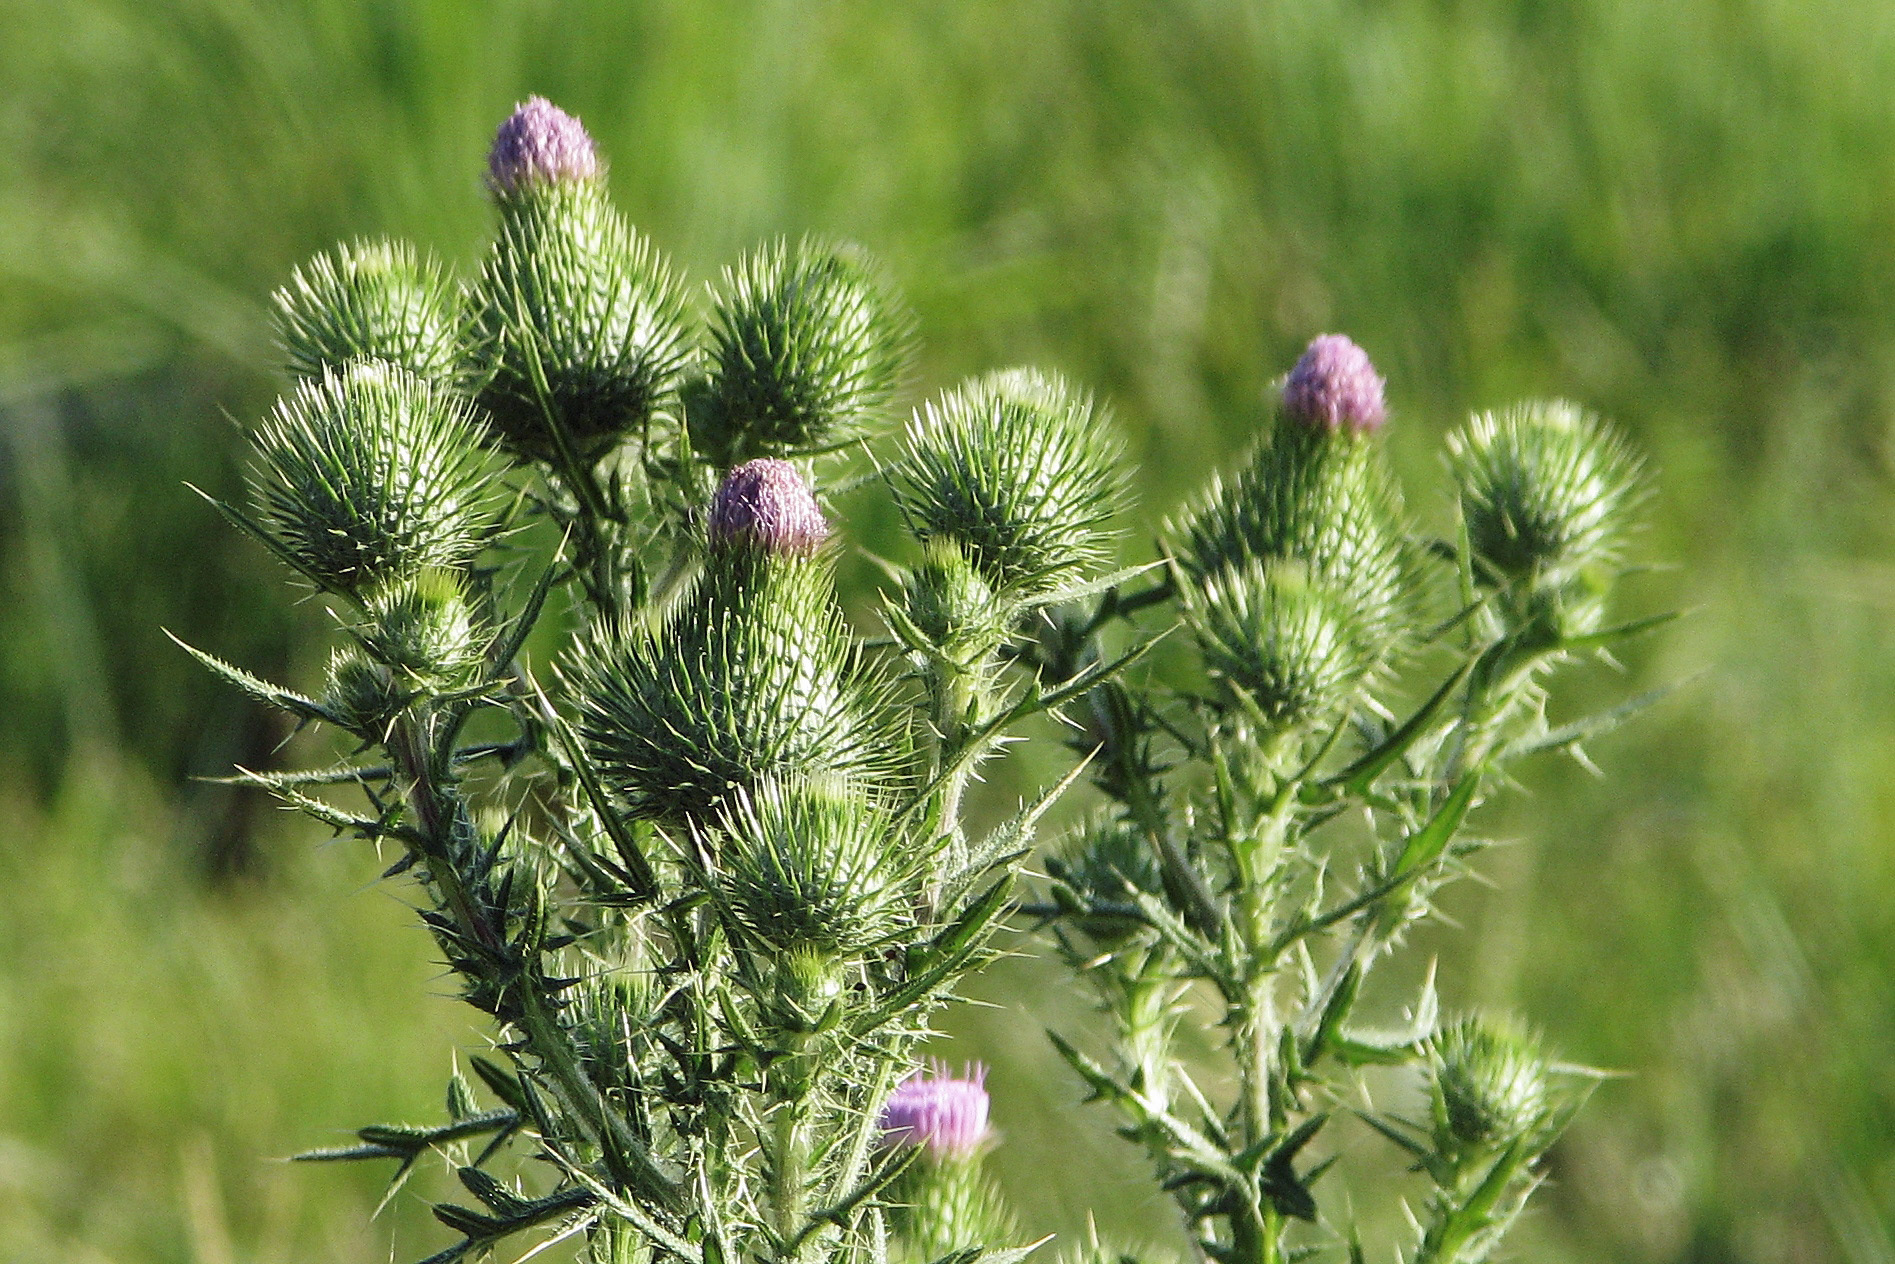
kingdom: Plantae
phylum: Tracheophyta
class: Magnoliopsida
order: Asterales
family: Asteraceae
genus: Cirsium
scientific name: Cirsium vulgare
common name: Bull thistle
